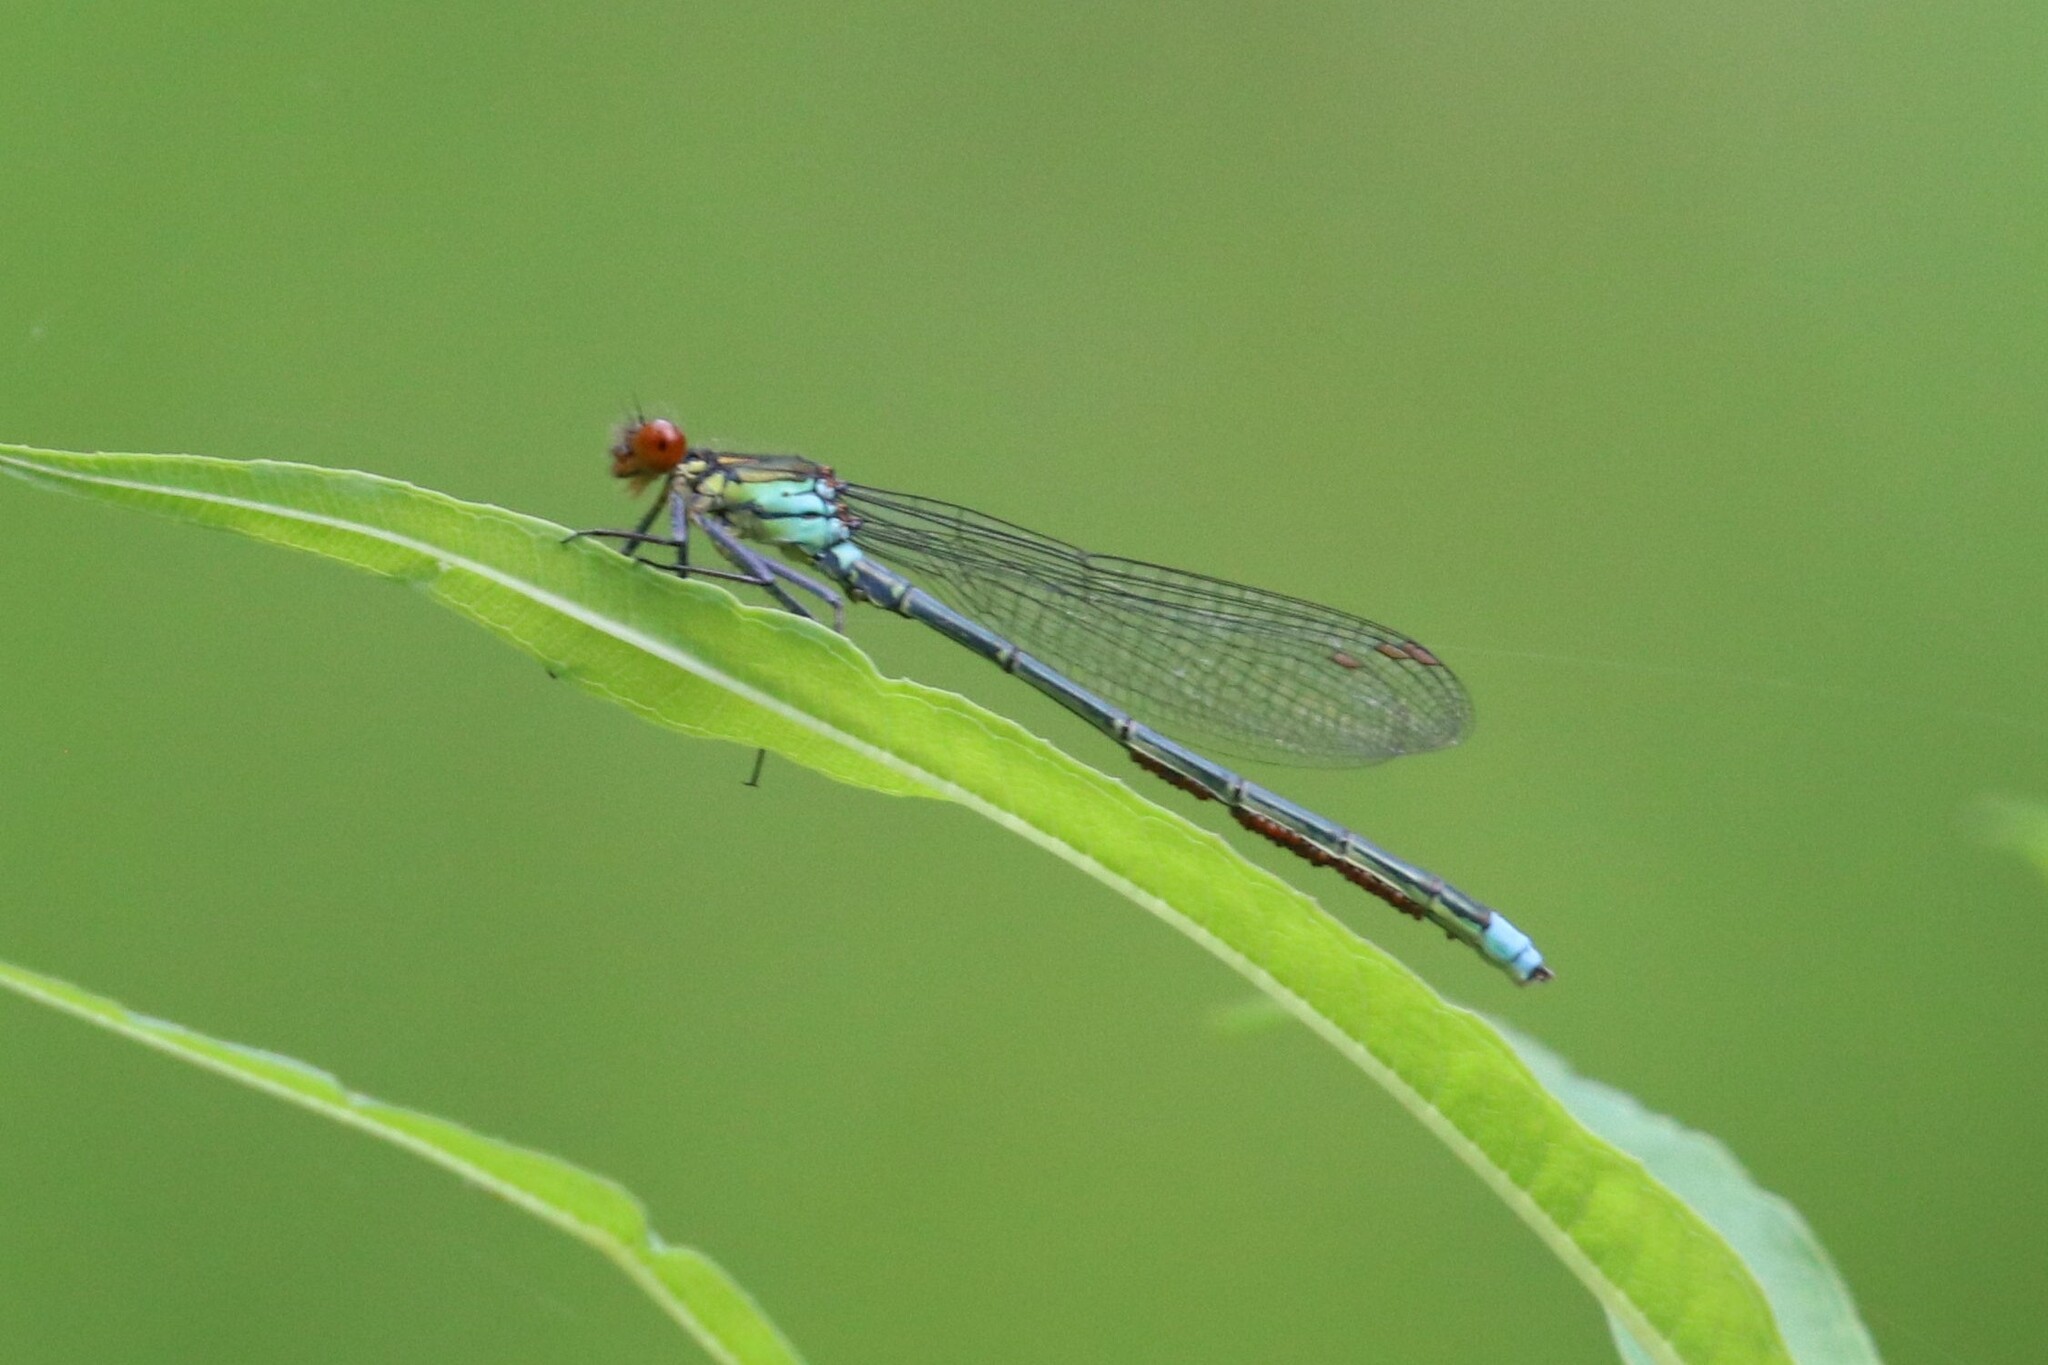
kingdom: Animalia
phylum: Arthropoda
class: Insecta
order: Odonata
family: Coenagrionidae
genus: Erythromma
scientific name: Erythromma najas
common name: Red-eyed damselfly
